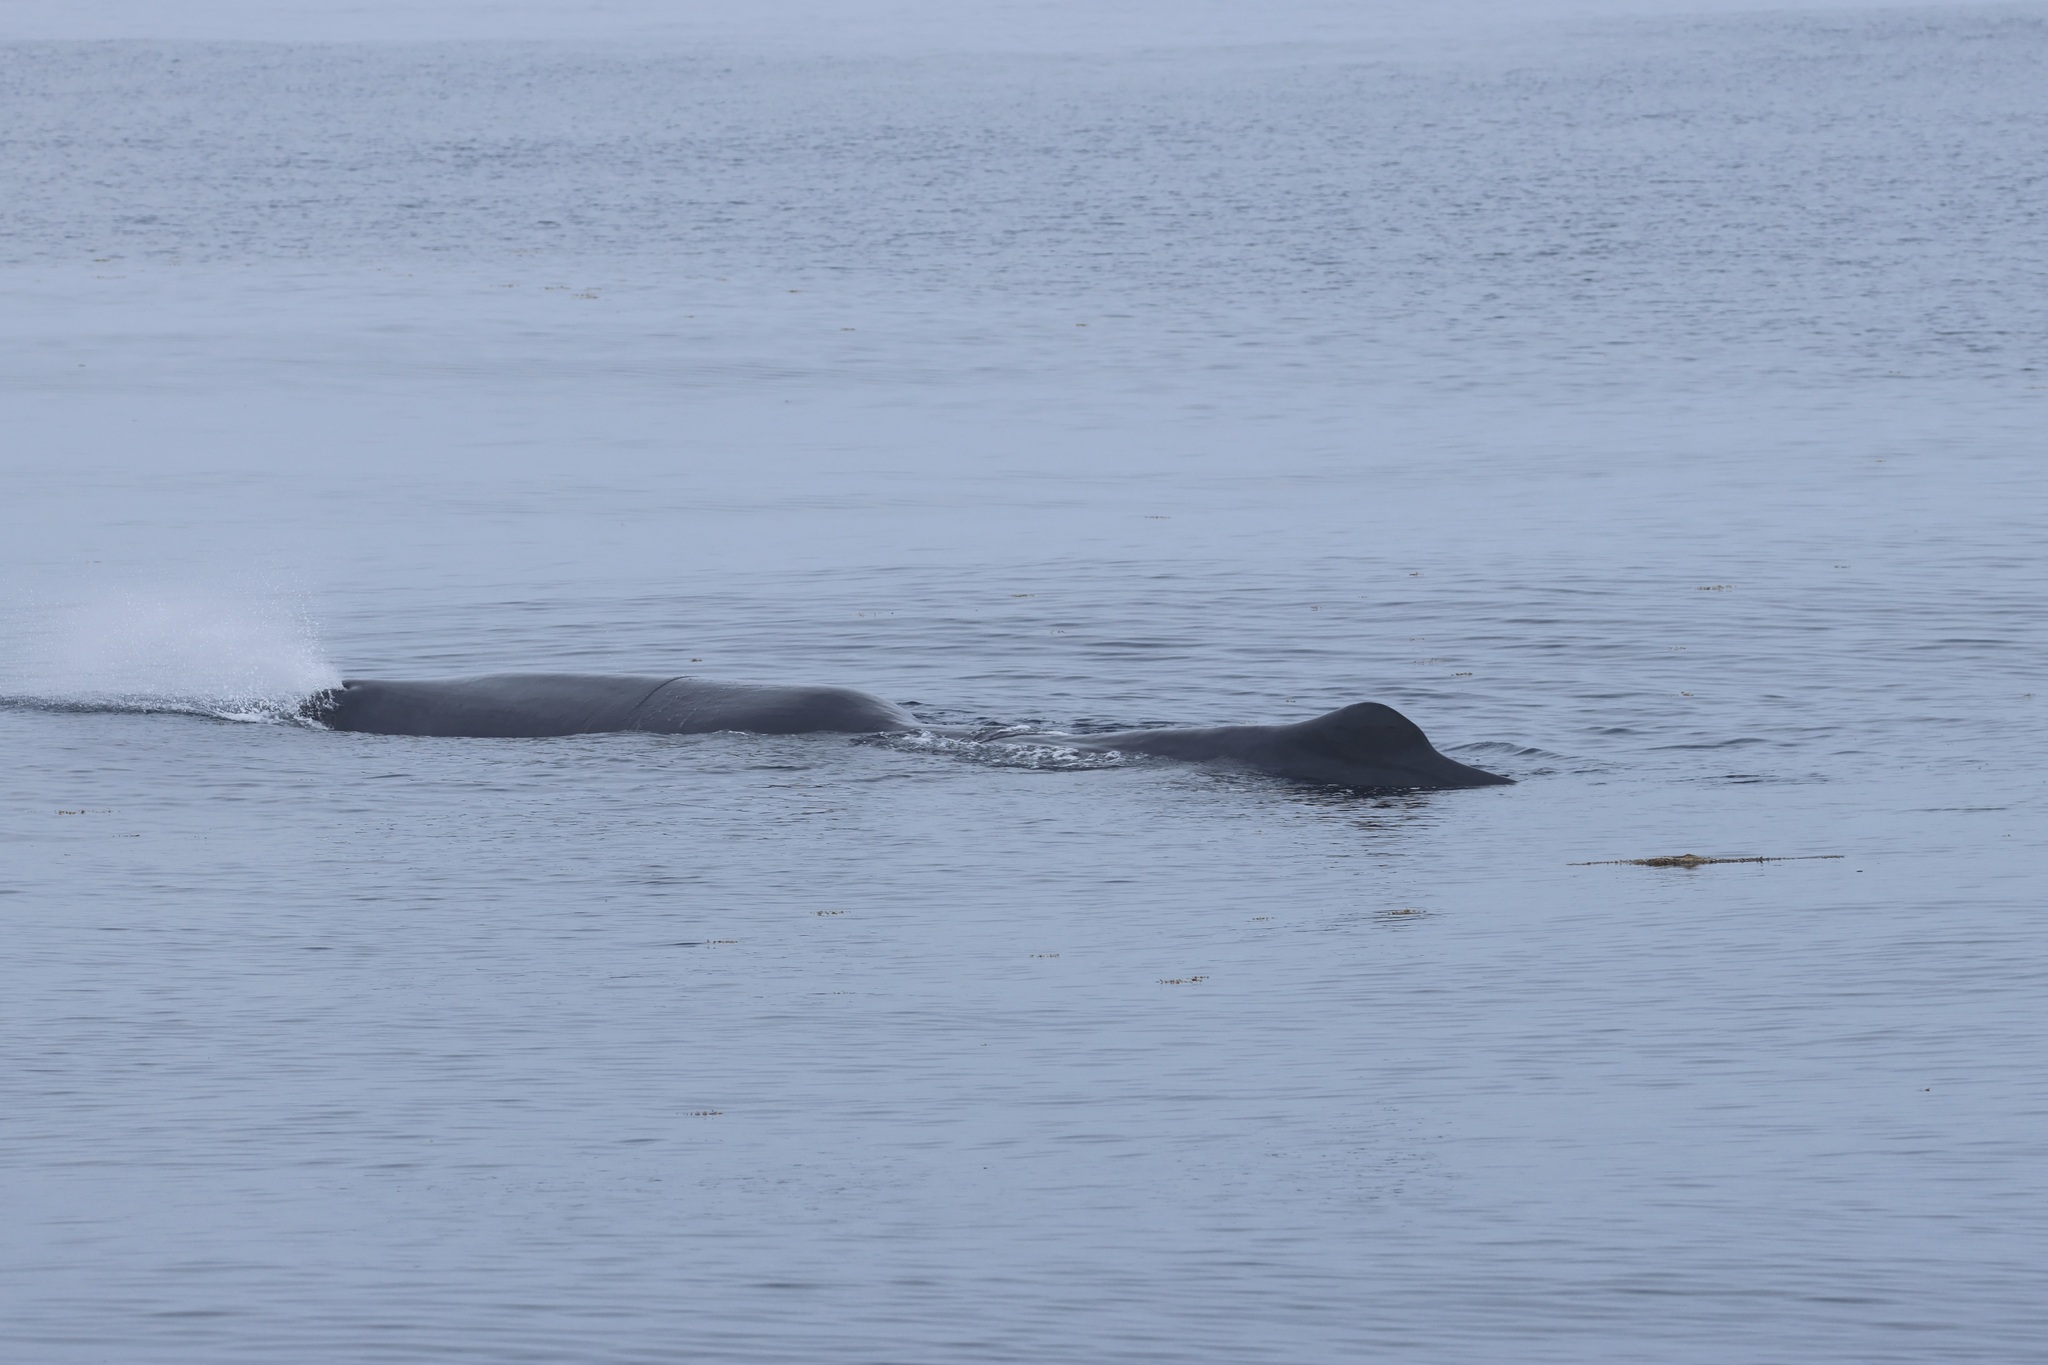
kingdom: Animalia
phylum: Chordata
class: Mammalia
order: Cetacea
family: Physeteridae
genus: Physeter
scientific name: Physeter macrocephalus
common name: Sperm whale
